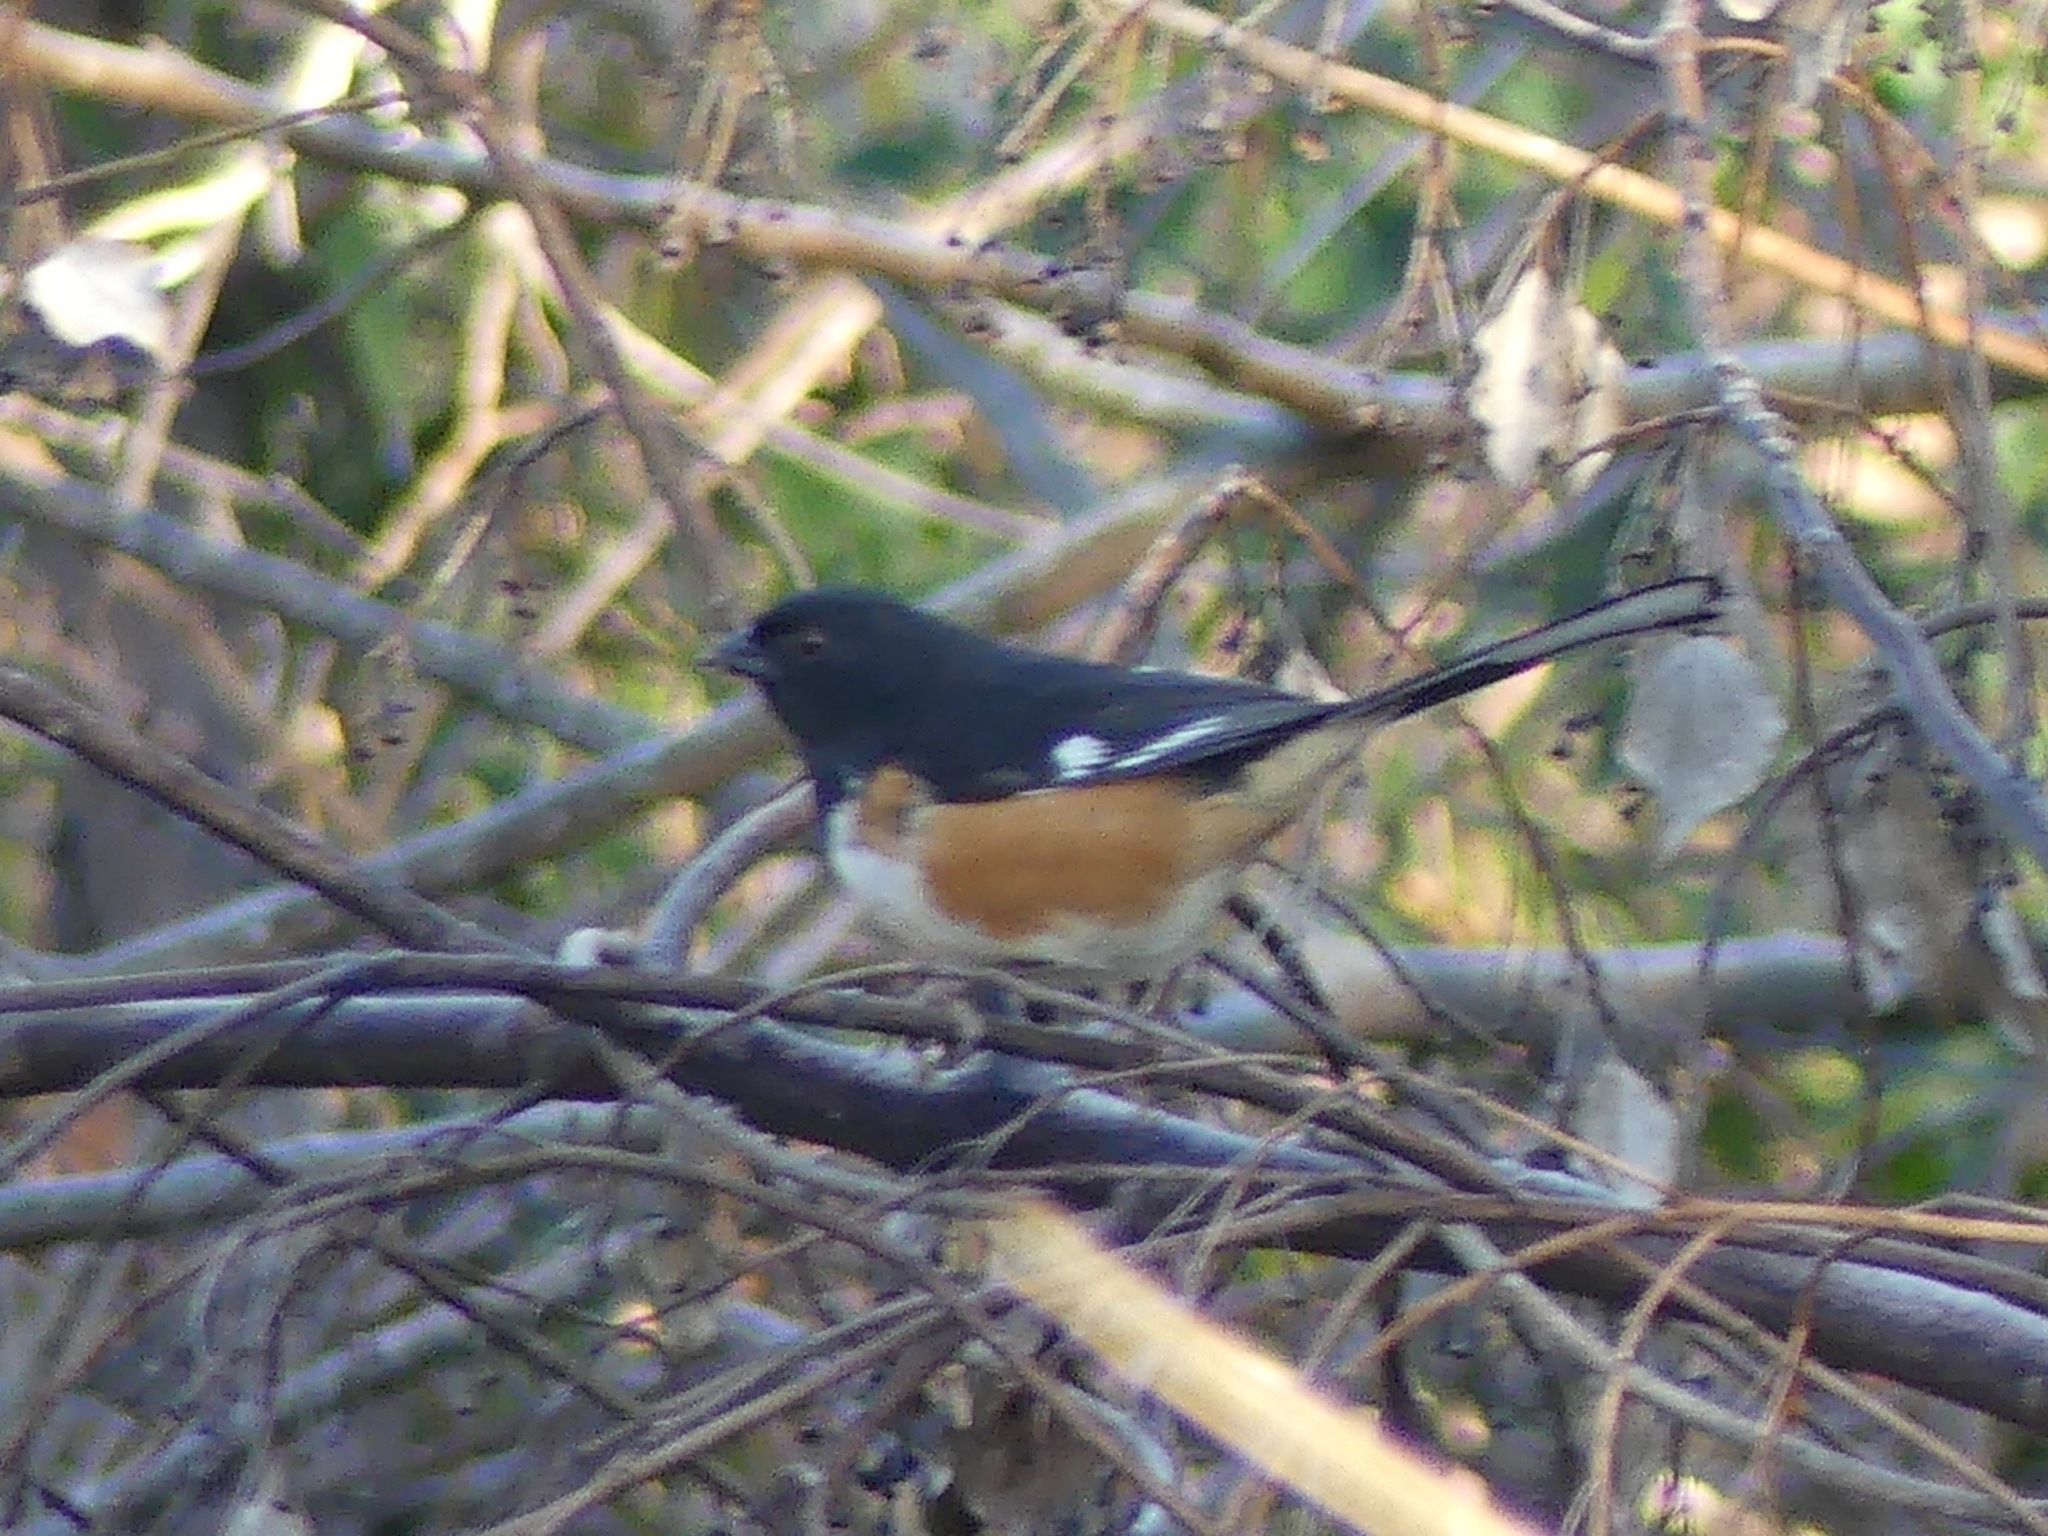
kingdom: Animalia
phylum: Chordata
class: Aves
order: Passeriformes
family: Passerellidae
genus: Pipilo
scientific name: Pipilo erythrophthalmus
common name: Eastern towhee
